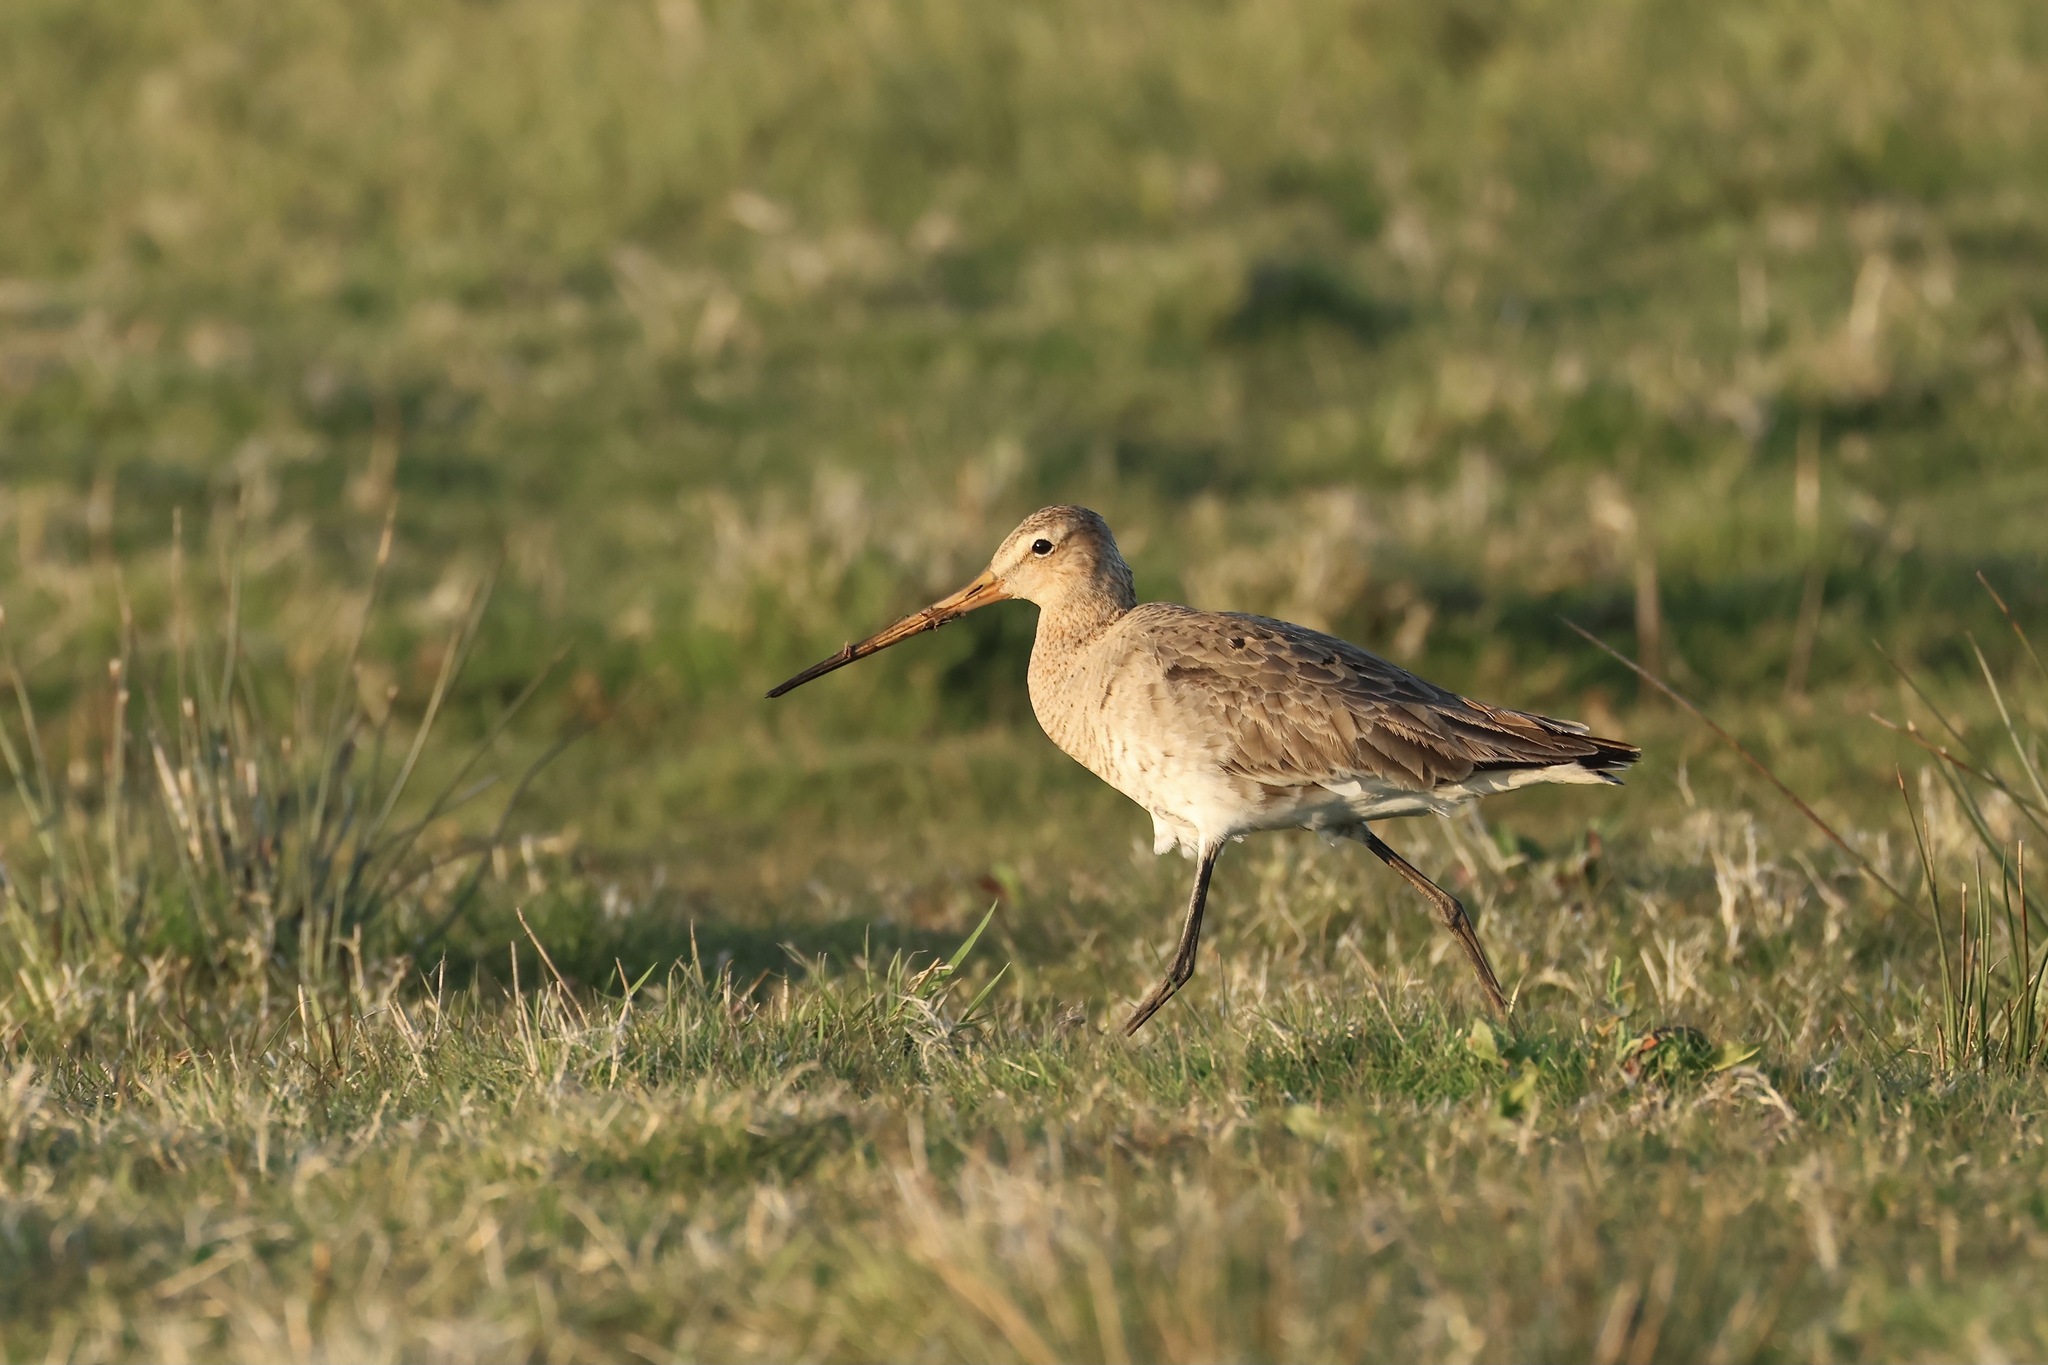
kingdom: Animalia
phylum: Chordata
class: Aves
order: Charadriiformes
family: Scolopacidae
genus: Limosa
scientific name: Limosa limosa
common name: Black-tailed godwit
